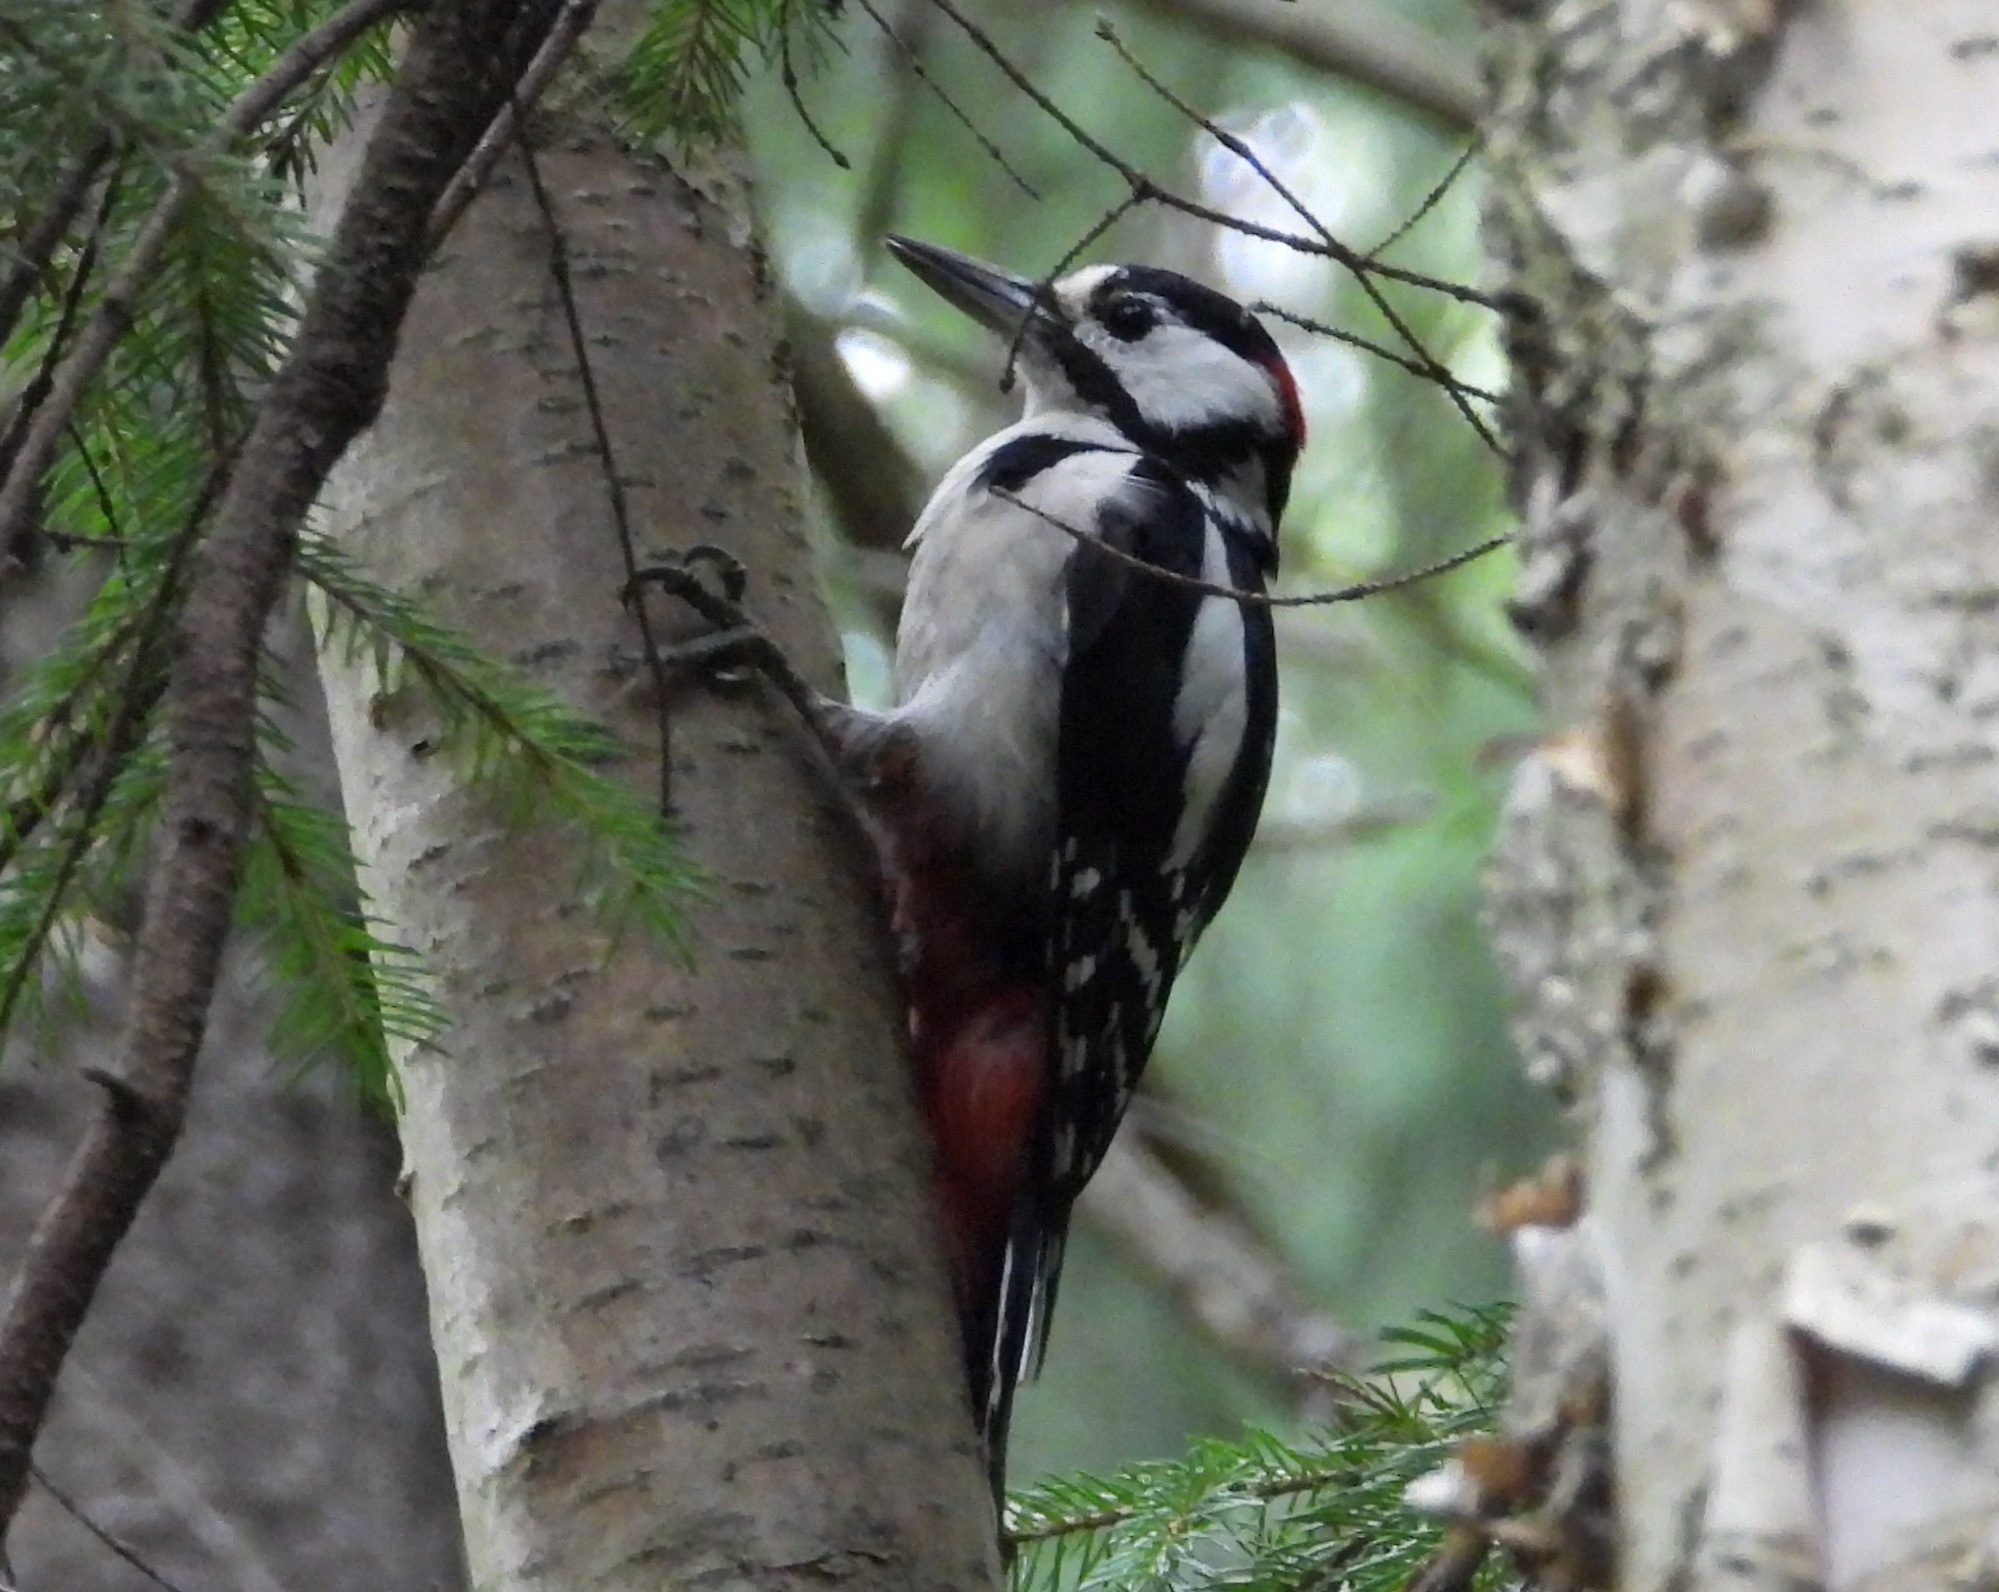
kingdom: Animalia
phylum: Chordata
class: Aves
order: Piciformes
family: Picidae
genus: Dendrocopos
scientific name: Dendrocopos major
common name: Great spotted woodpecker
